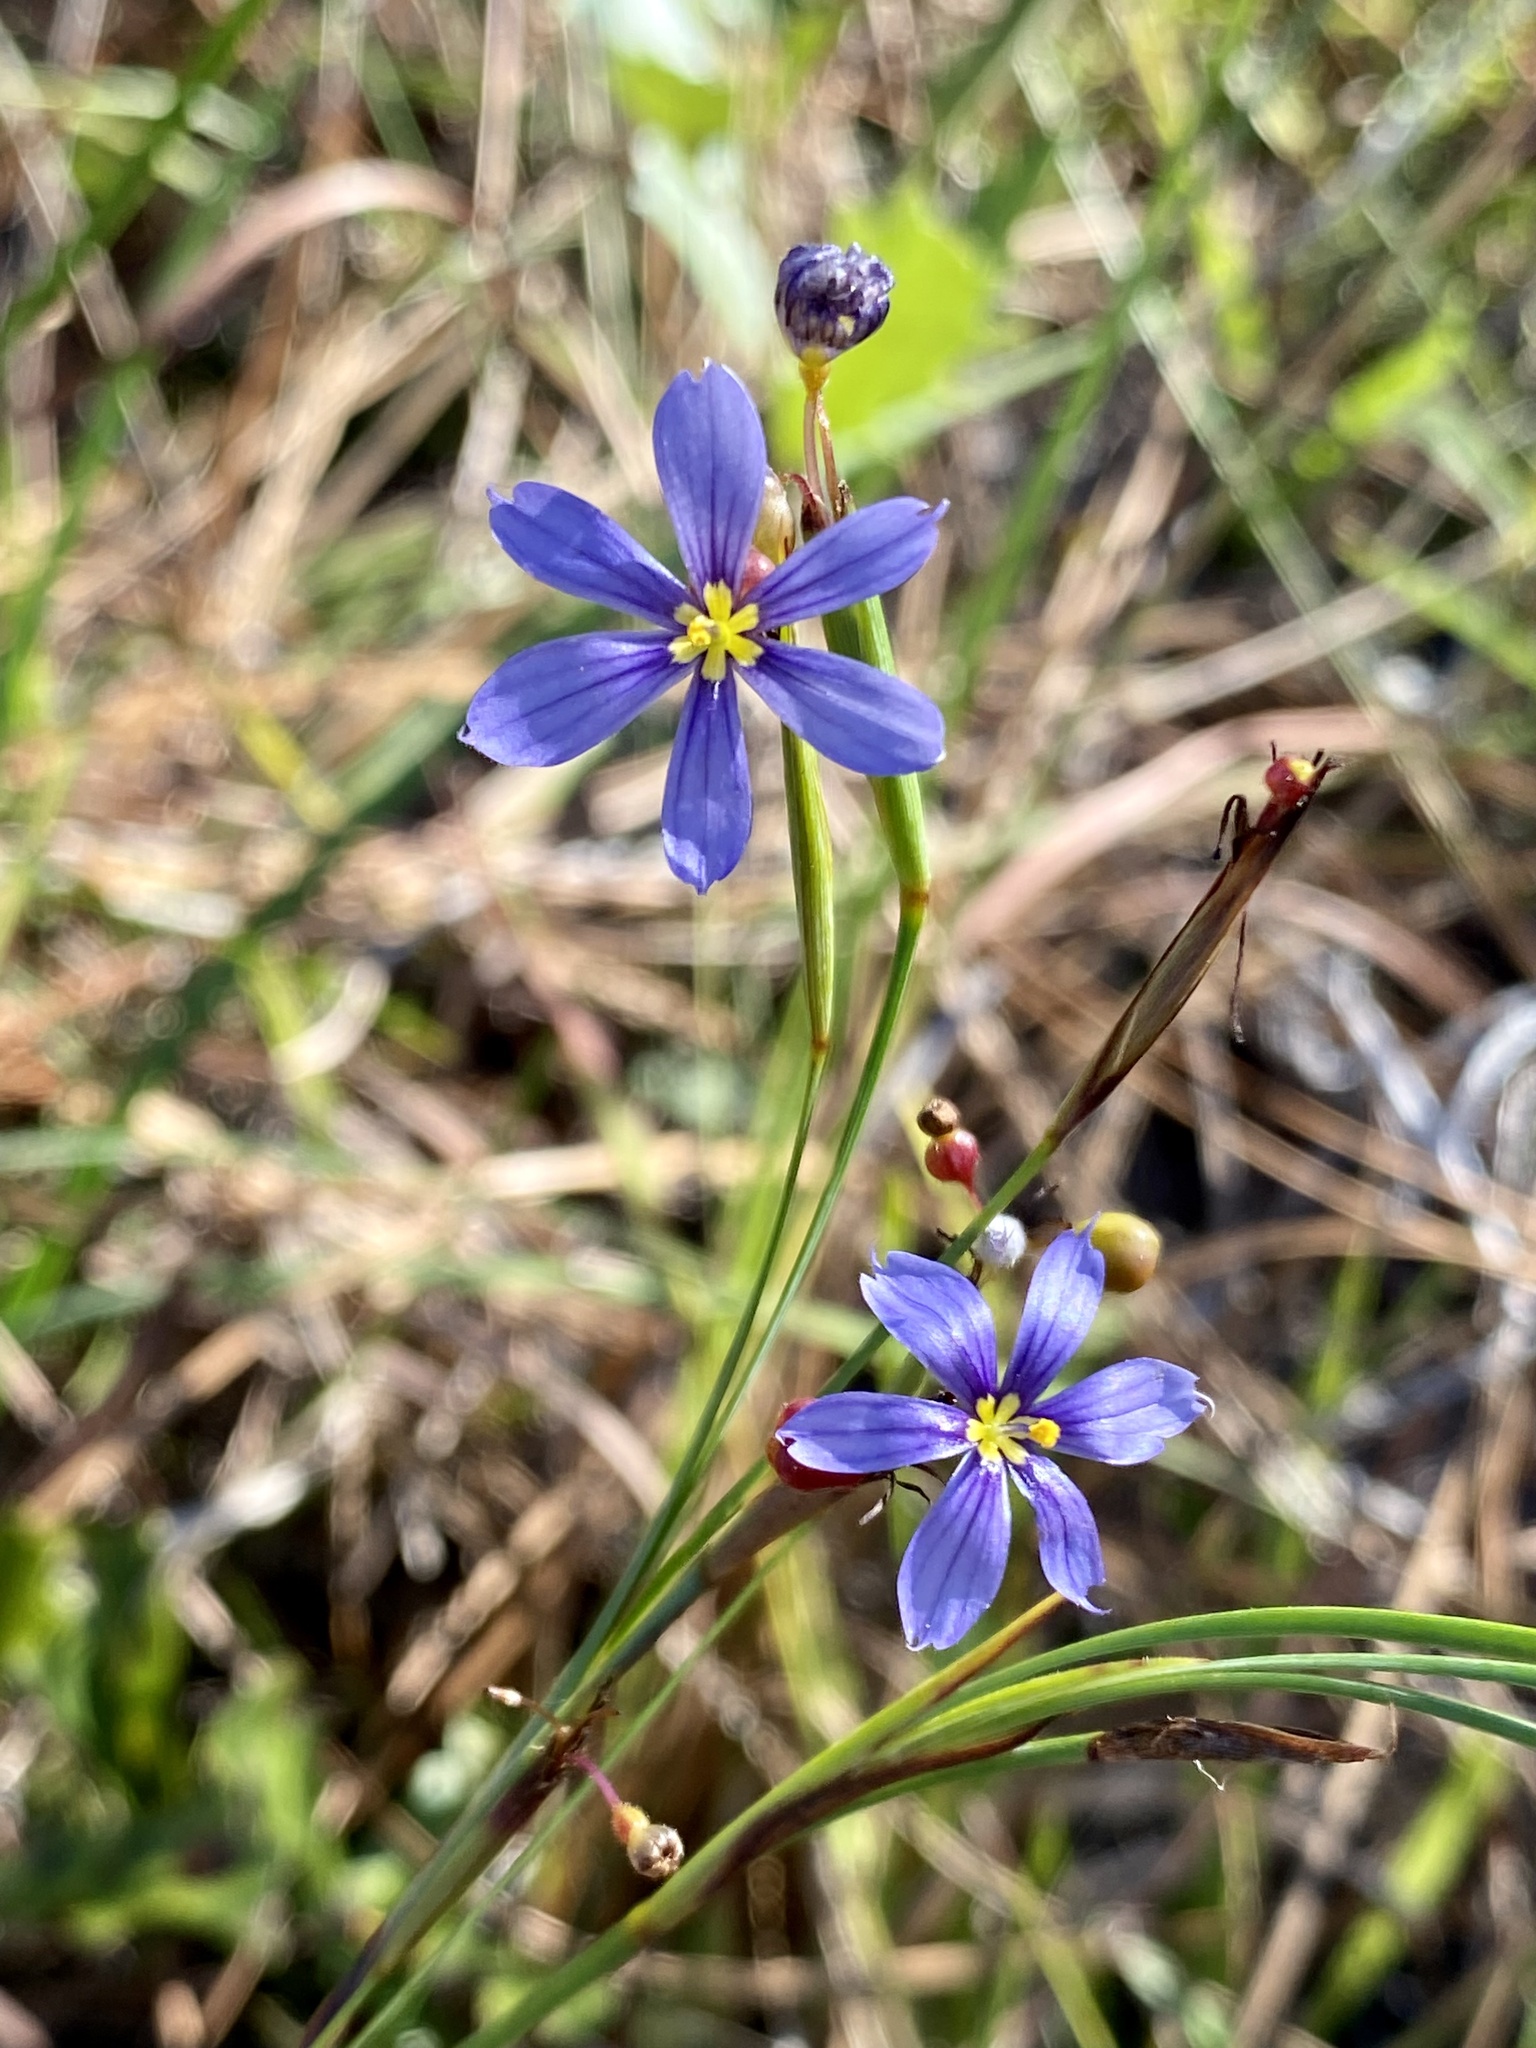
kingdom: Plantae
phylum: Tracheophyta
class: Liliopsida
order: Asparagales
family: Iridaceae
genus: Sisyrinchium
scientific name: Sisyrinchium xerophyllum
